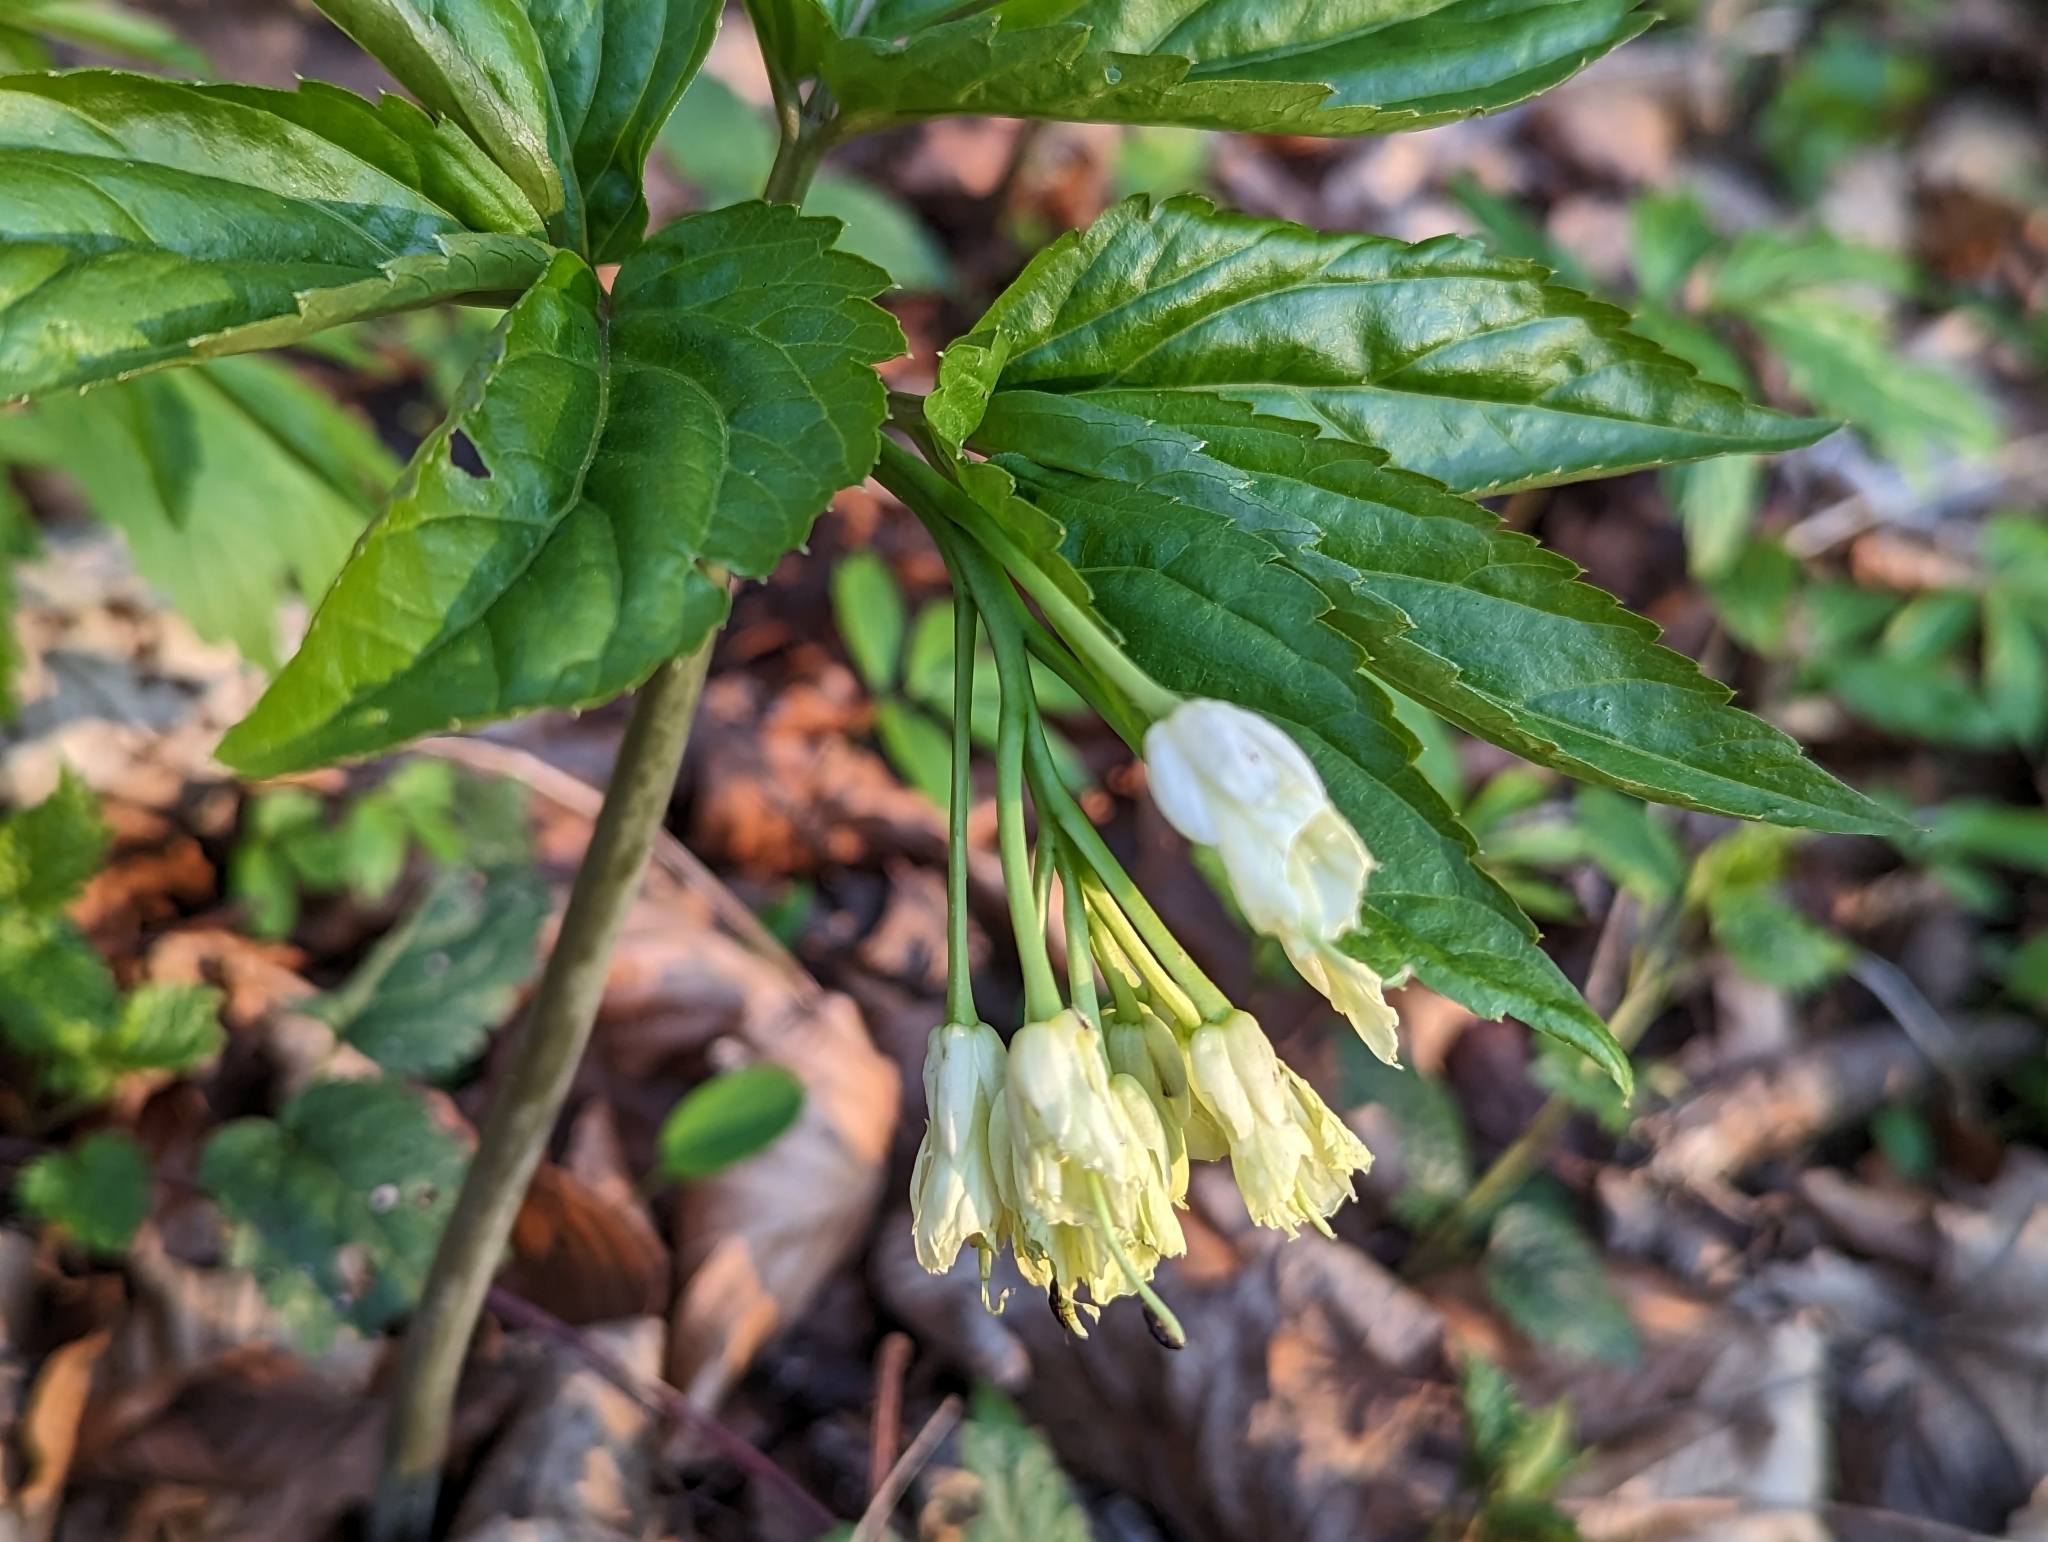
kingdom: Plantae
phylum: Tracheophyta
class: Magnoliopsida
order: Brassicales
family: Brassicaceae
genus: Cardamine
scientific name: Cardamine enneaphyllos
